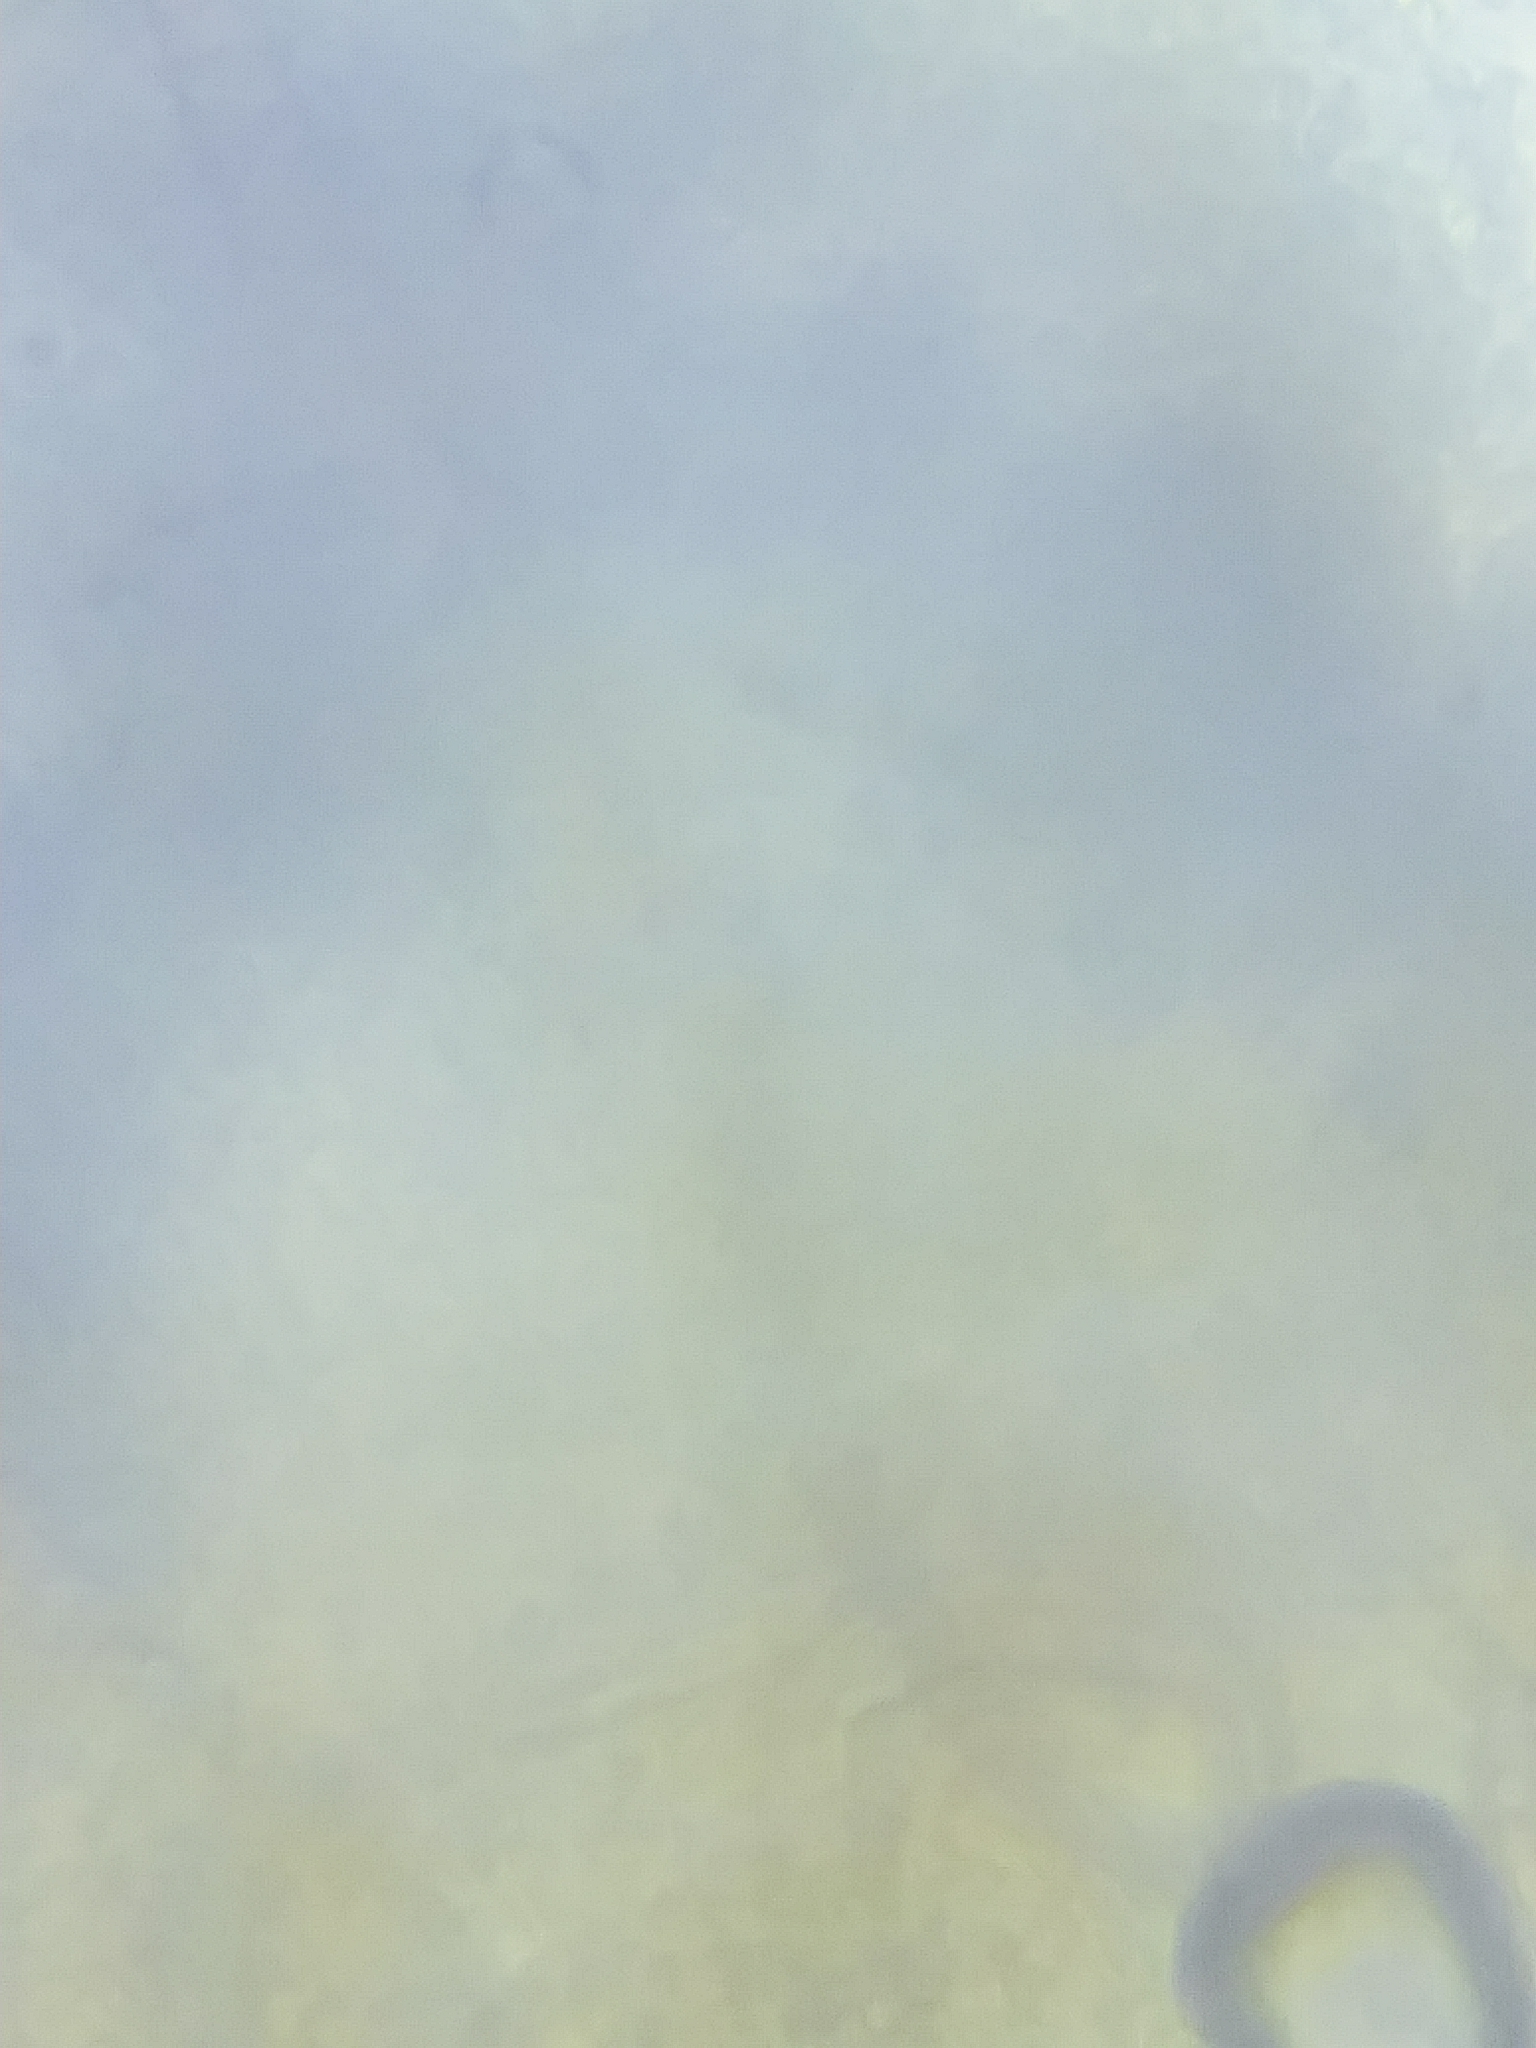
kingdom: Fungi
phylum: Ascomycota
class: Sordariomycetes
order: Hypocreales
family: Nectriaceae
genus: Scolecofusarium
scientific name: Scolecofusarium ciliatum
